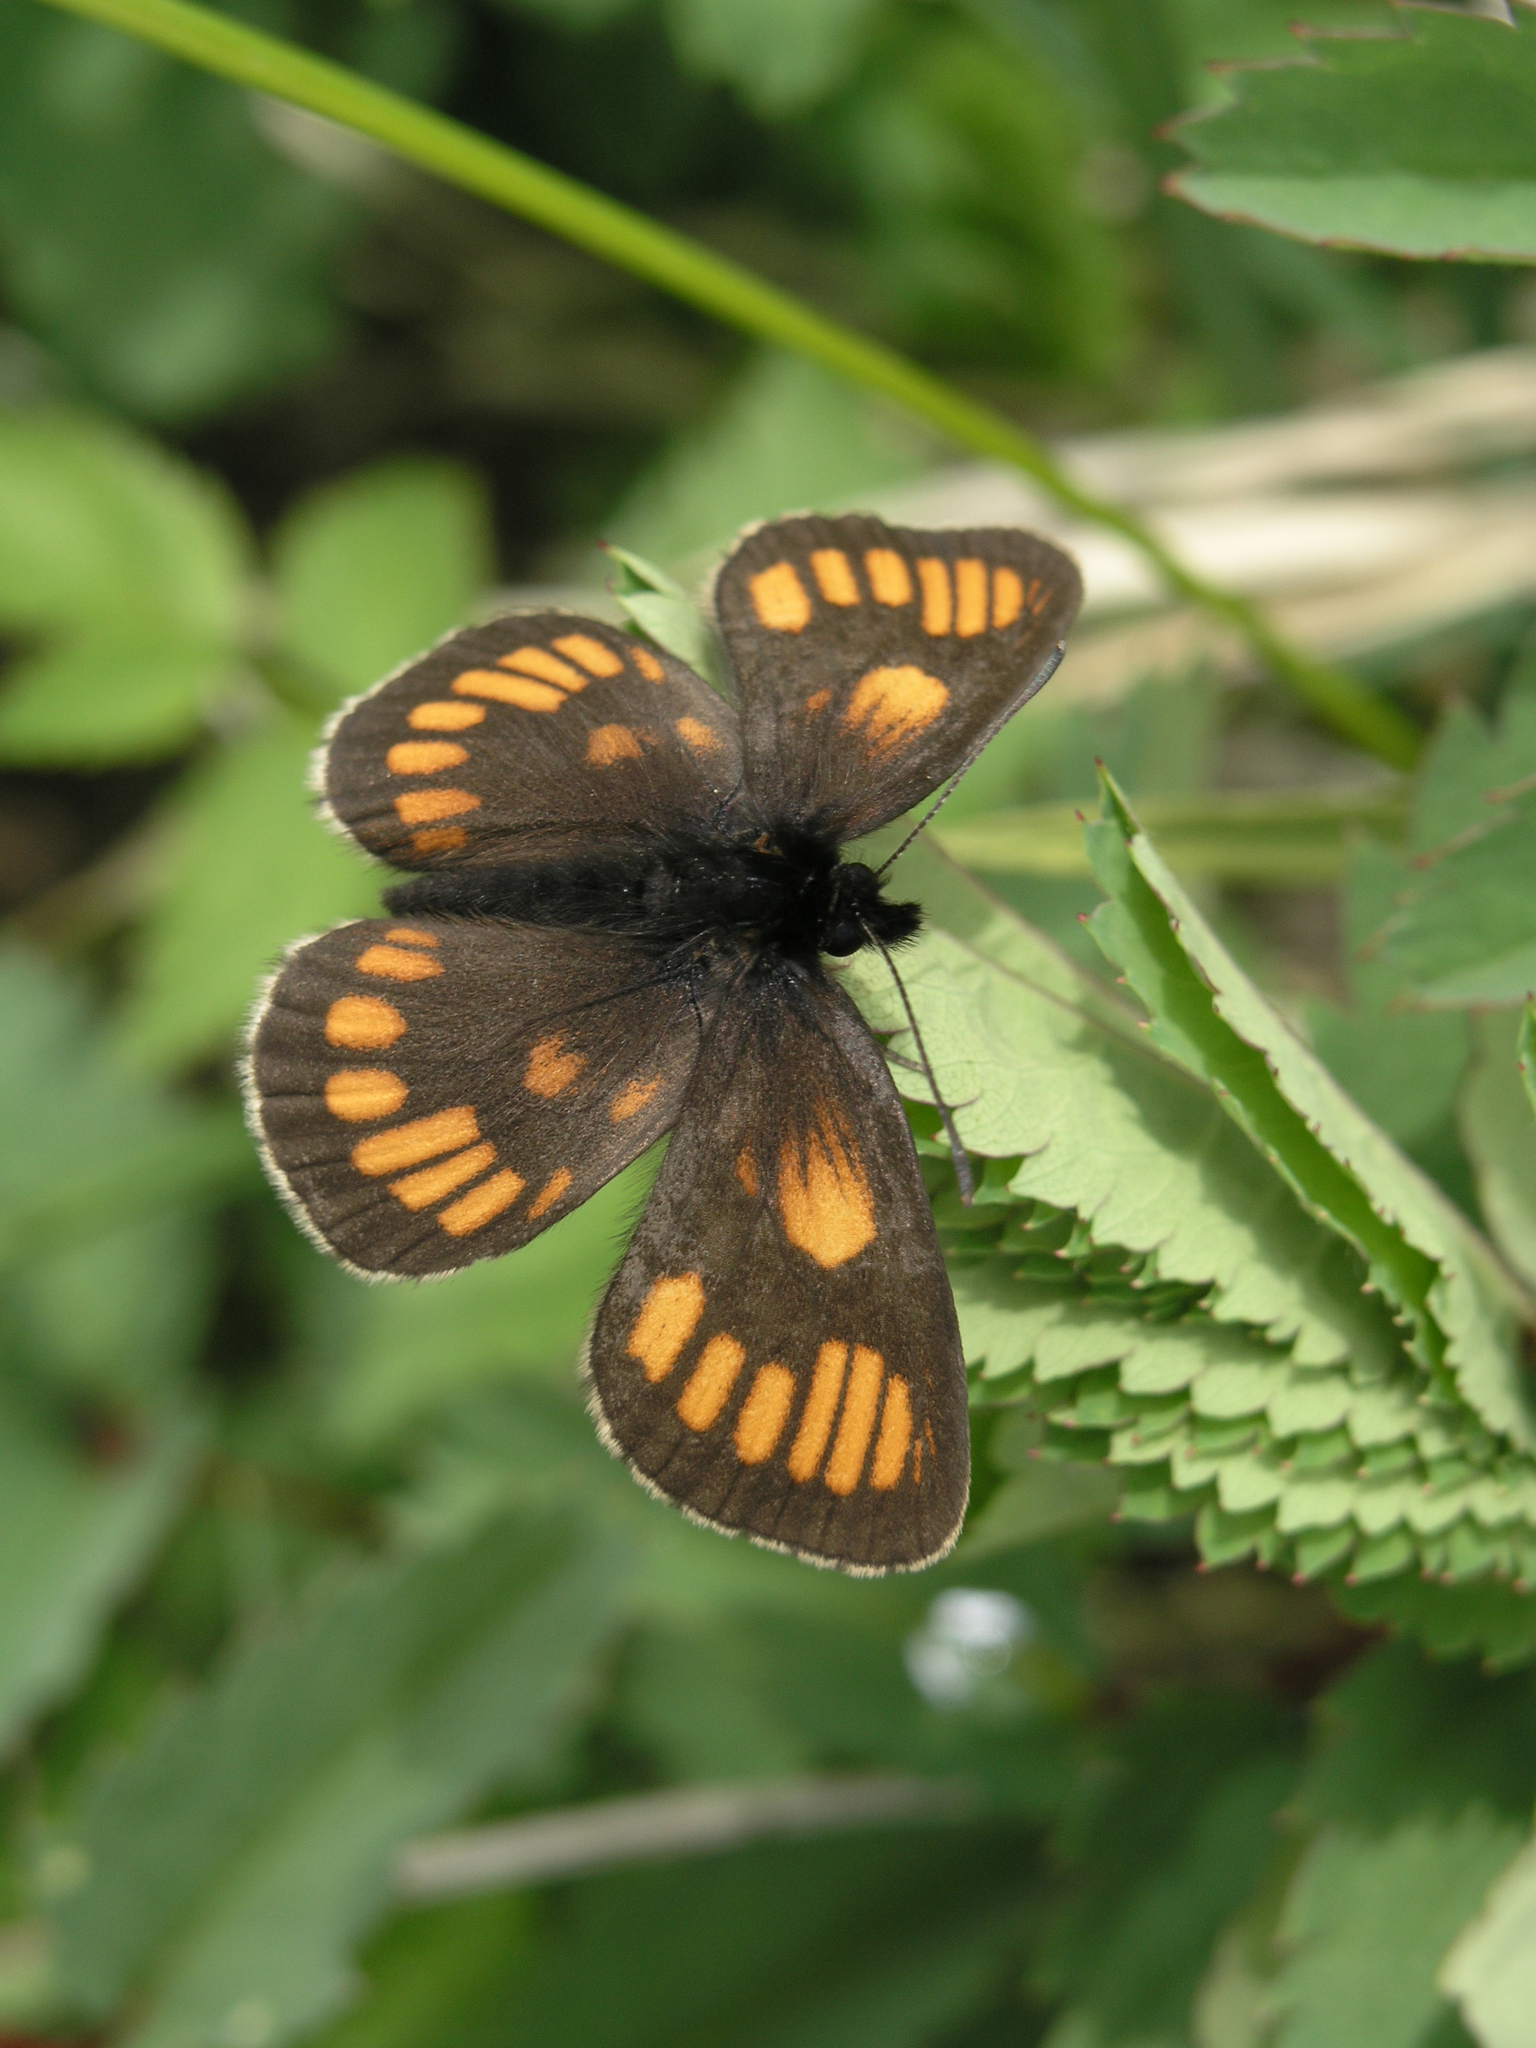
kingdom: Animalia
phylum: Arthropoda
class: Insecta
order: Lepidoptera
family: Nymphalidae
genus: Erebia
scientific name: Erebia maurisius
